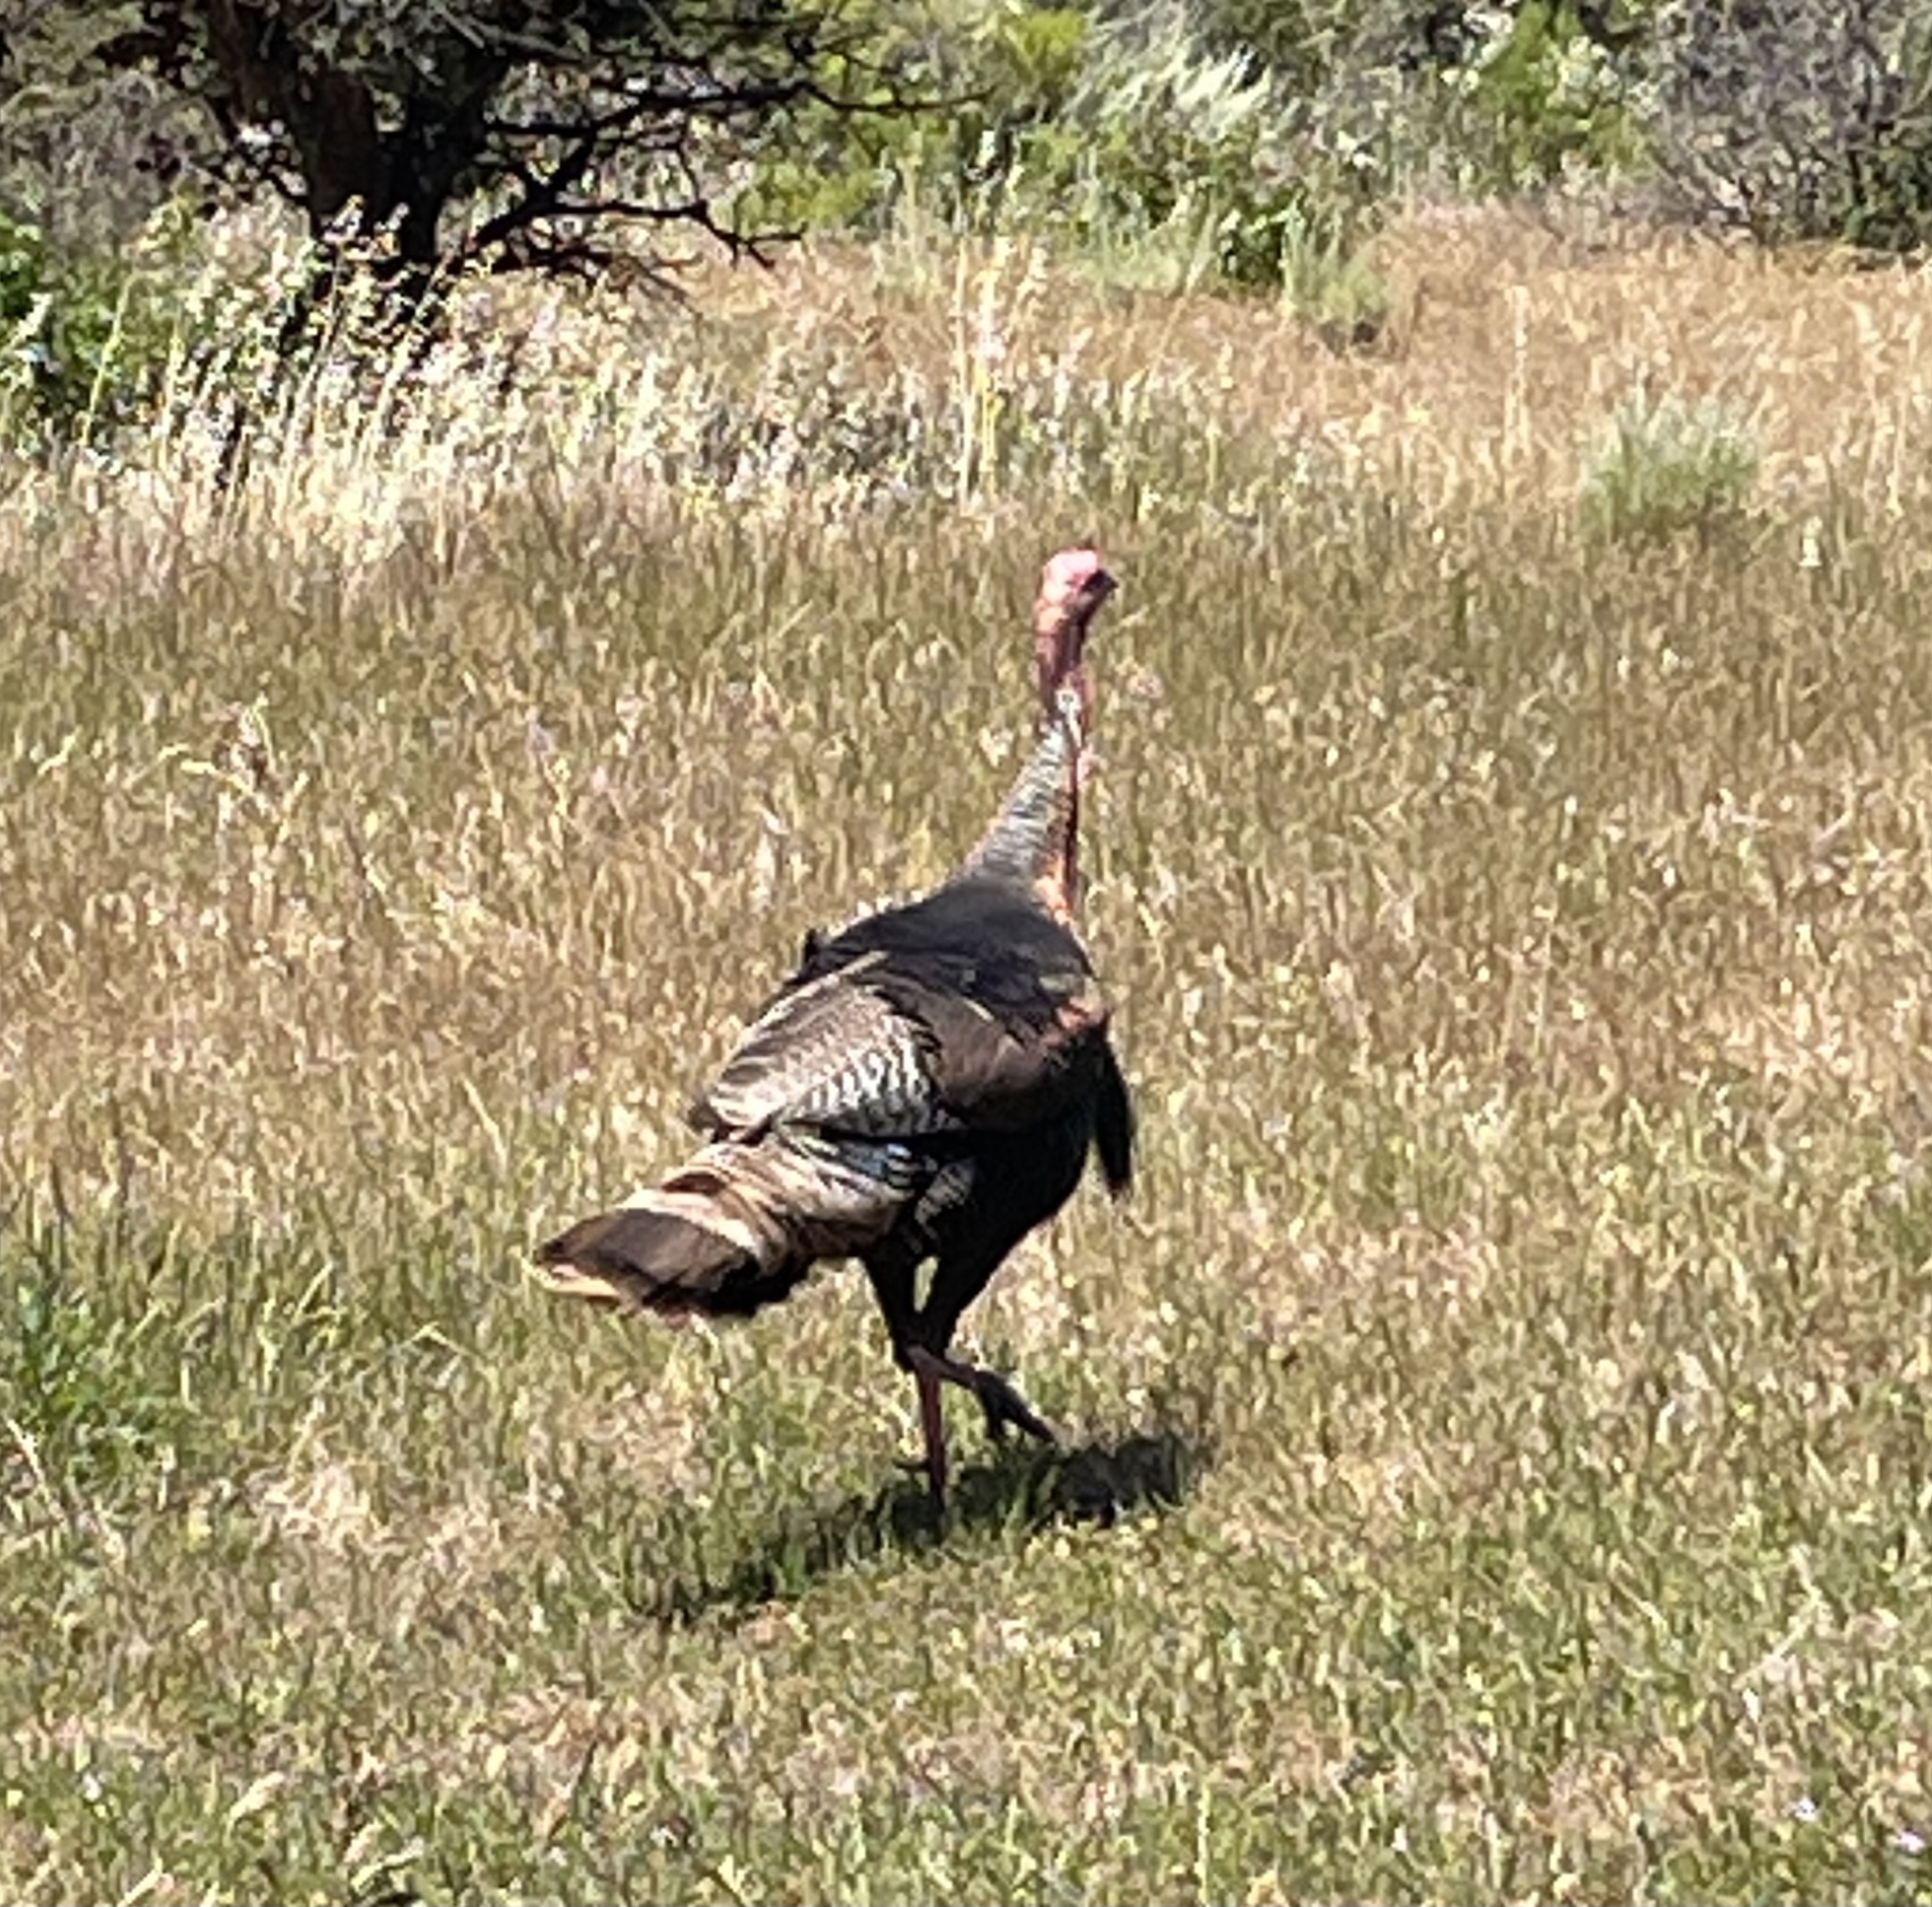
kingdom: Animalia
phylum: Chordata
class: Aves
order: Galliformes
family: Phasianidae
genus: Meleagris
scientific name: Meleagris gallopavo
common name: Wild turkey
